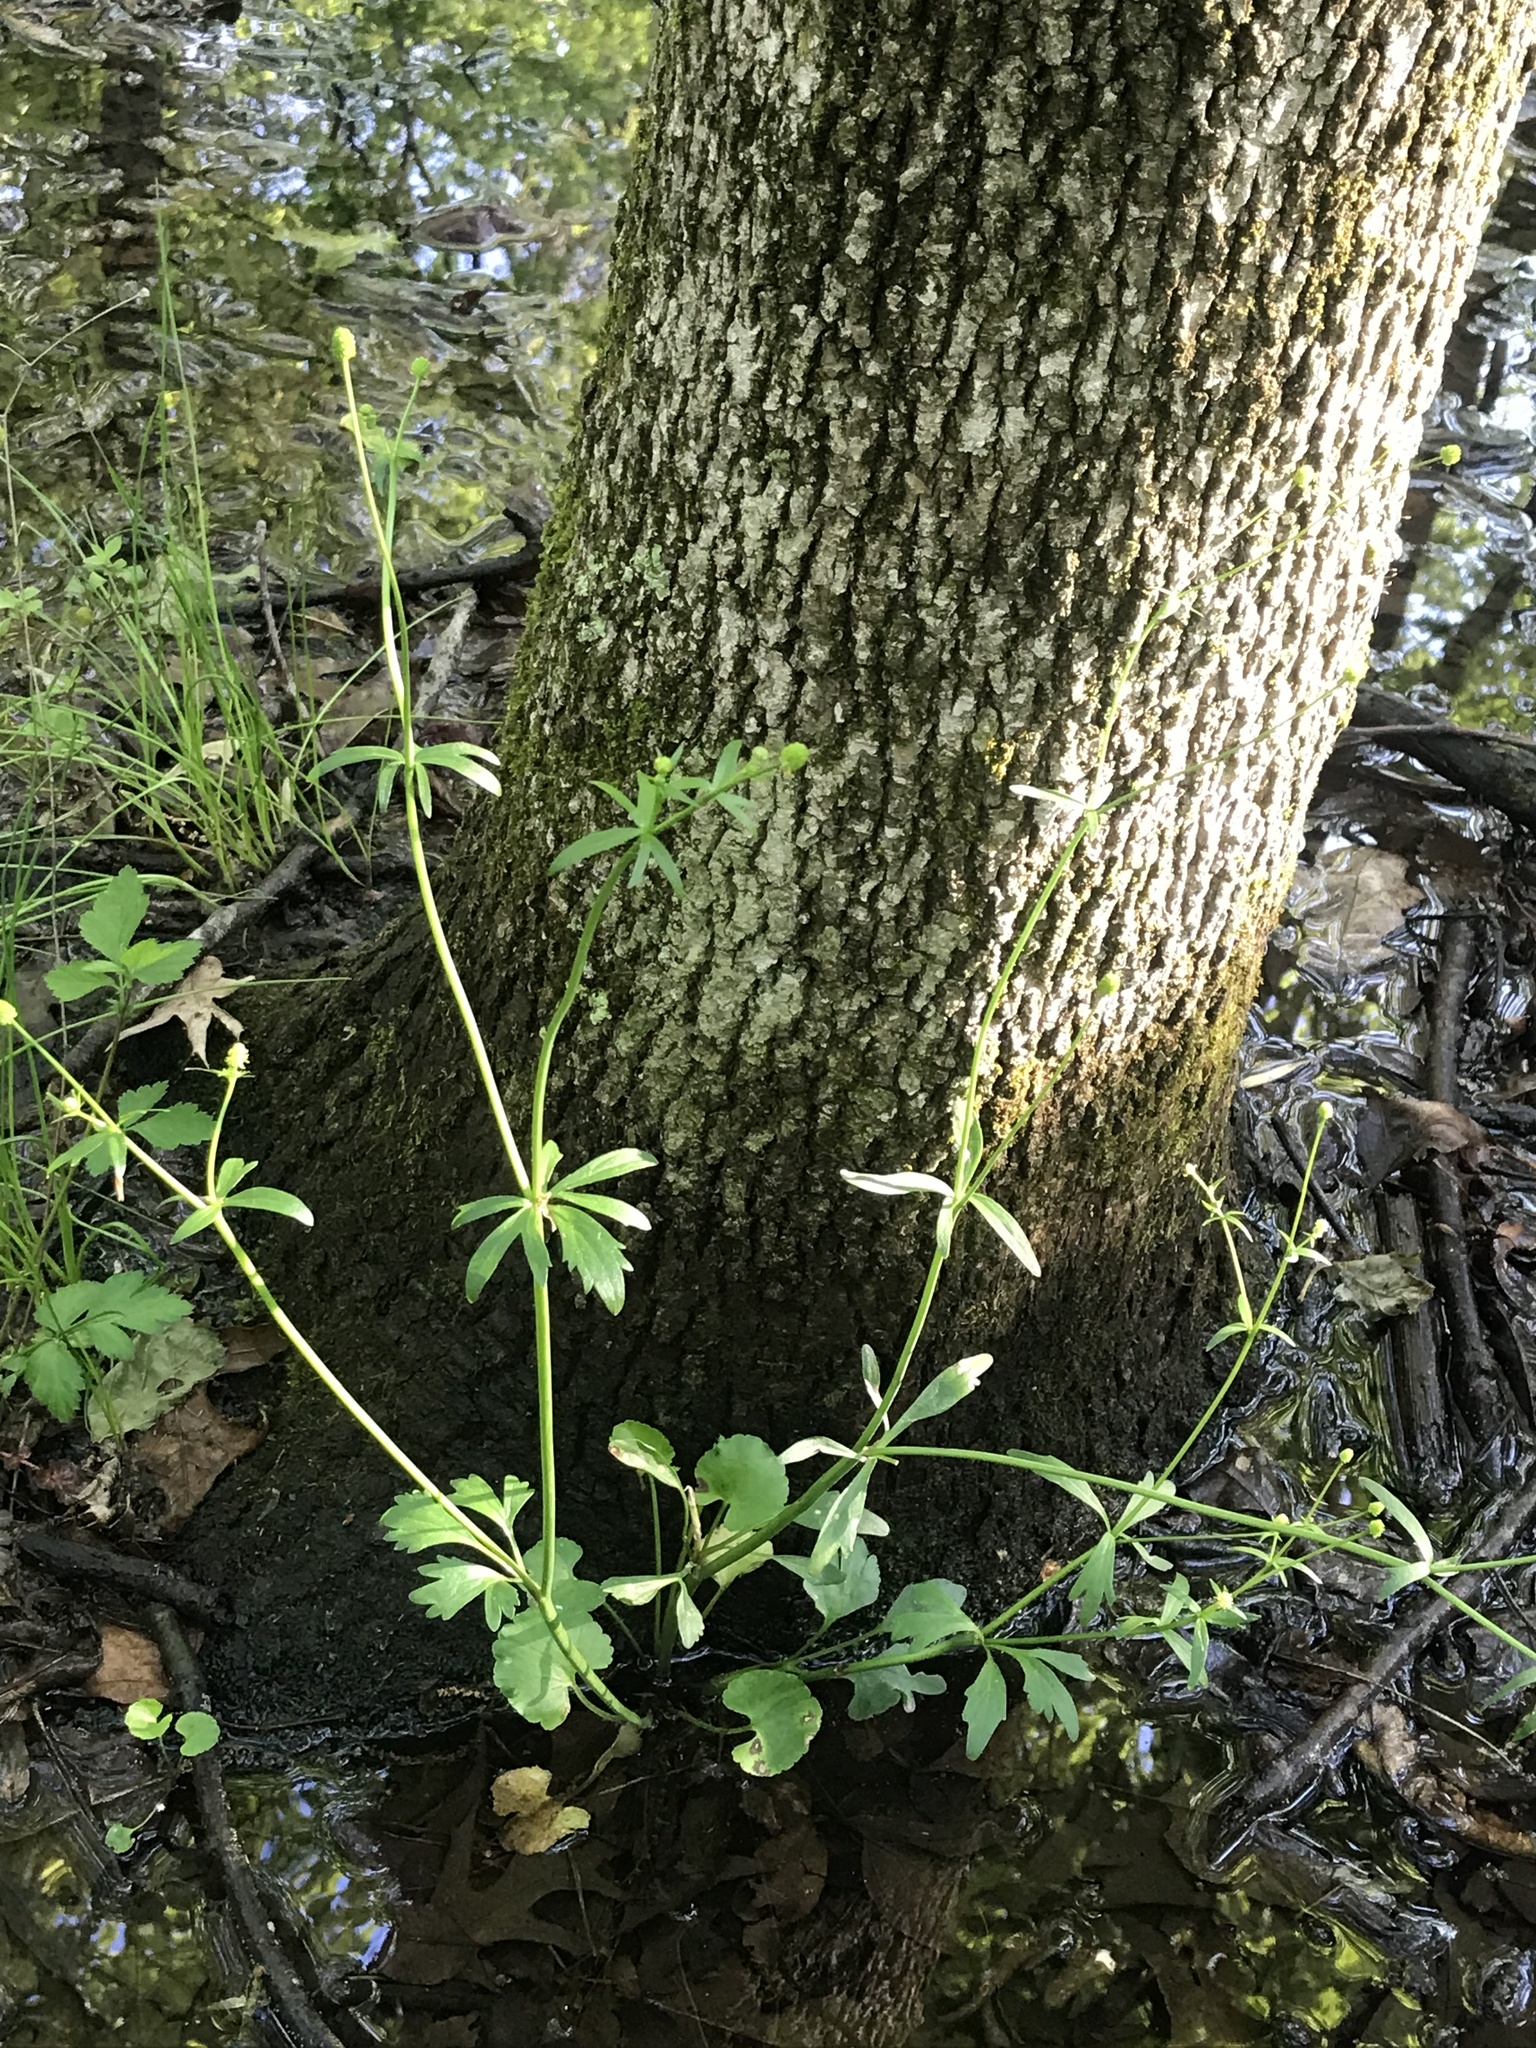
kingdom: Plantae
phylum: Tracheophyta
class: Magnoliopsida
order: Ranunculales
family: Ranunculaceae
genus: Ranunculus
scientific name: Ranunculus abortivus
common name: Early wood buttercup
